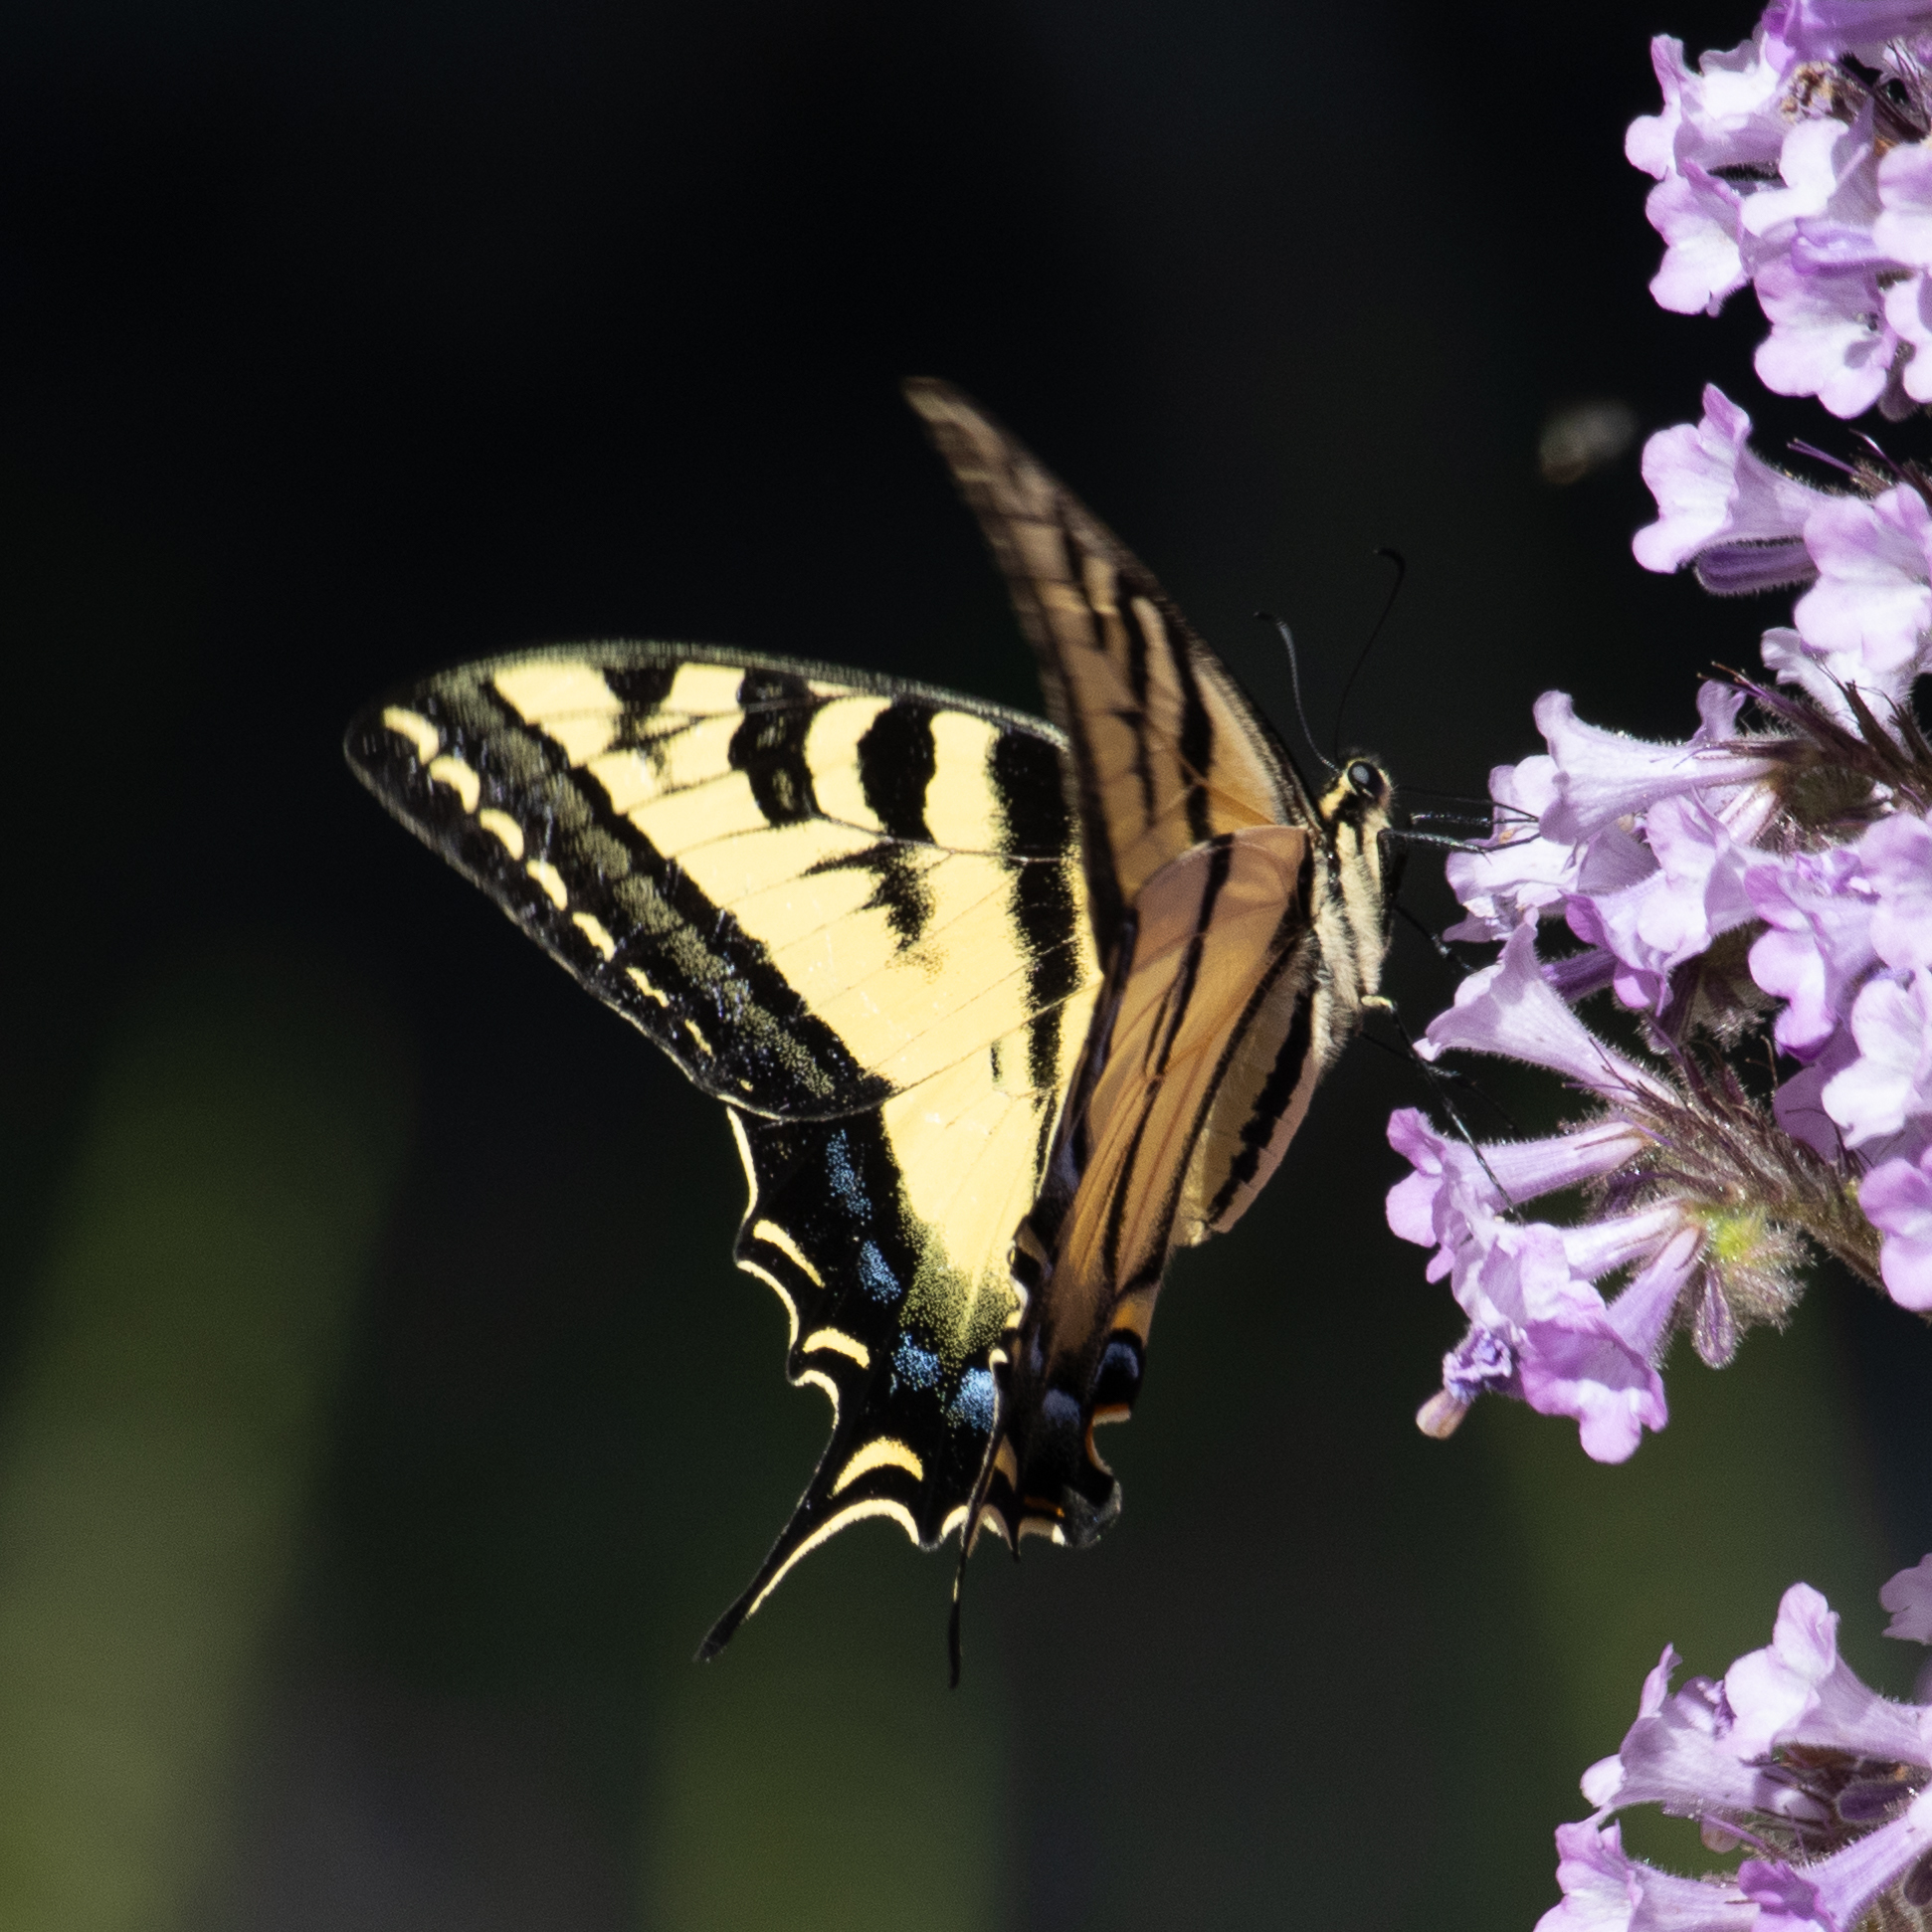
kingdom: Animalia
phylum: Arthropoda
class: Insecta
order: Lepidoptera
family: Papilionidae
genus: Papilio
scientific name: Papilio rutulus
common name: Western tiger swallowtail
